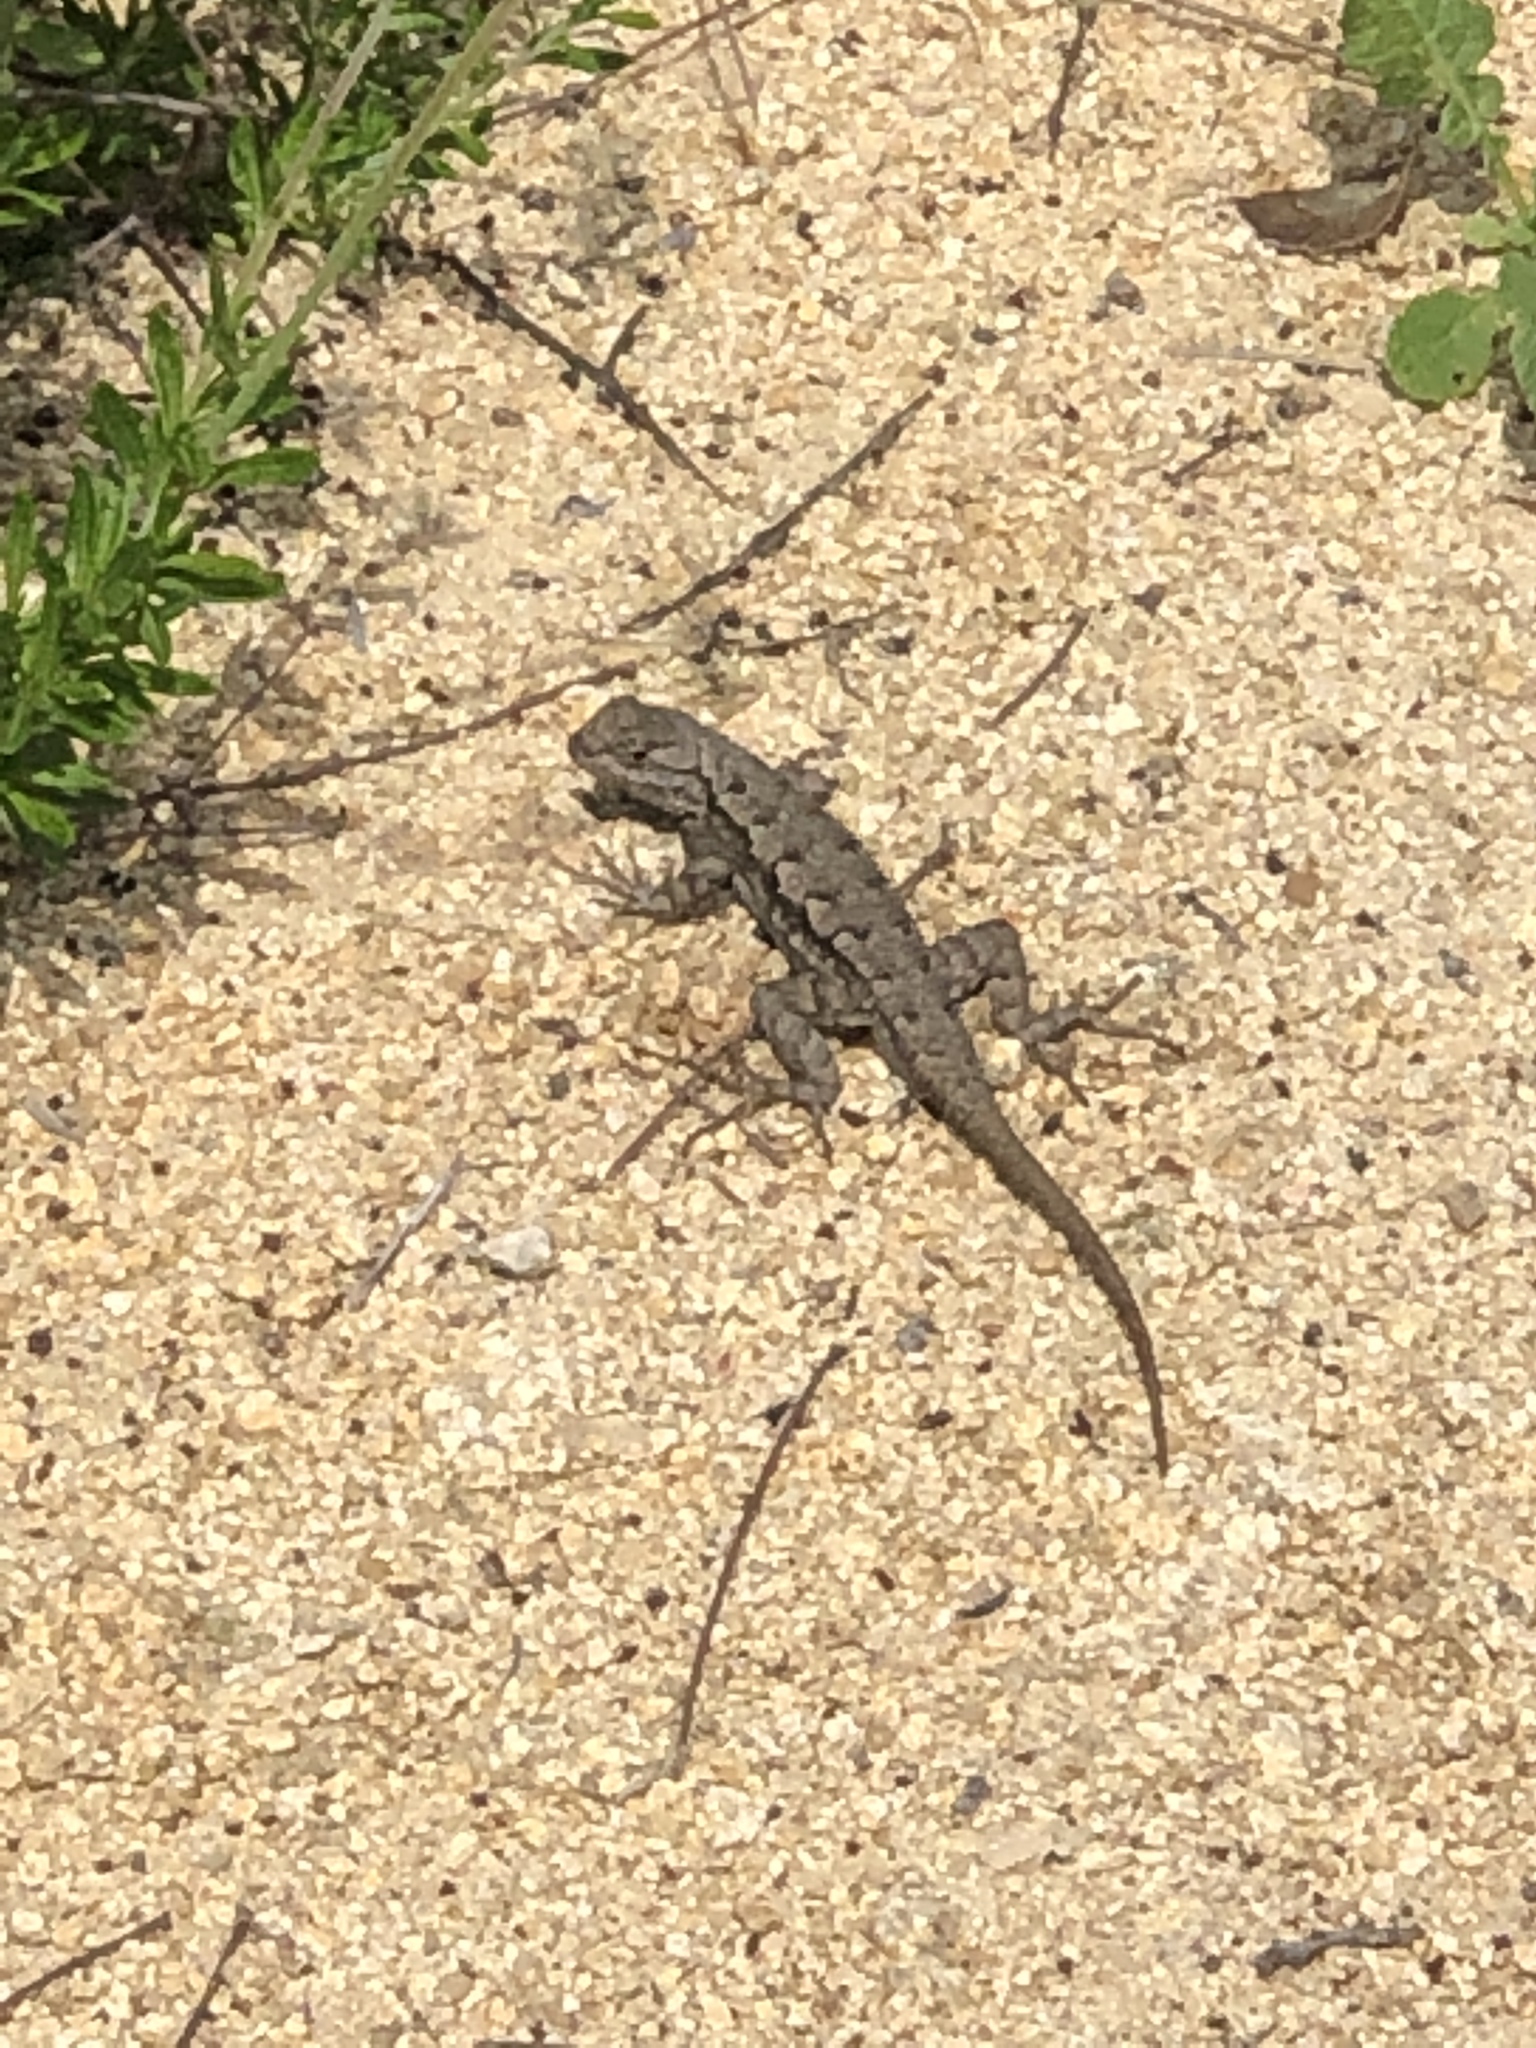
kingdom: Animalia
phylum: Chordata
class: Squamata
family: Phrynosomatidae
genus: Sceloporus
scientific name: Sceloporus occidentalis
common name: Western fence lizard
